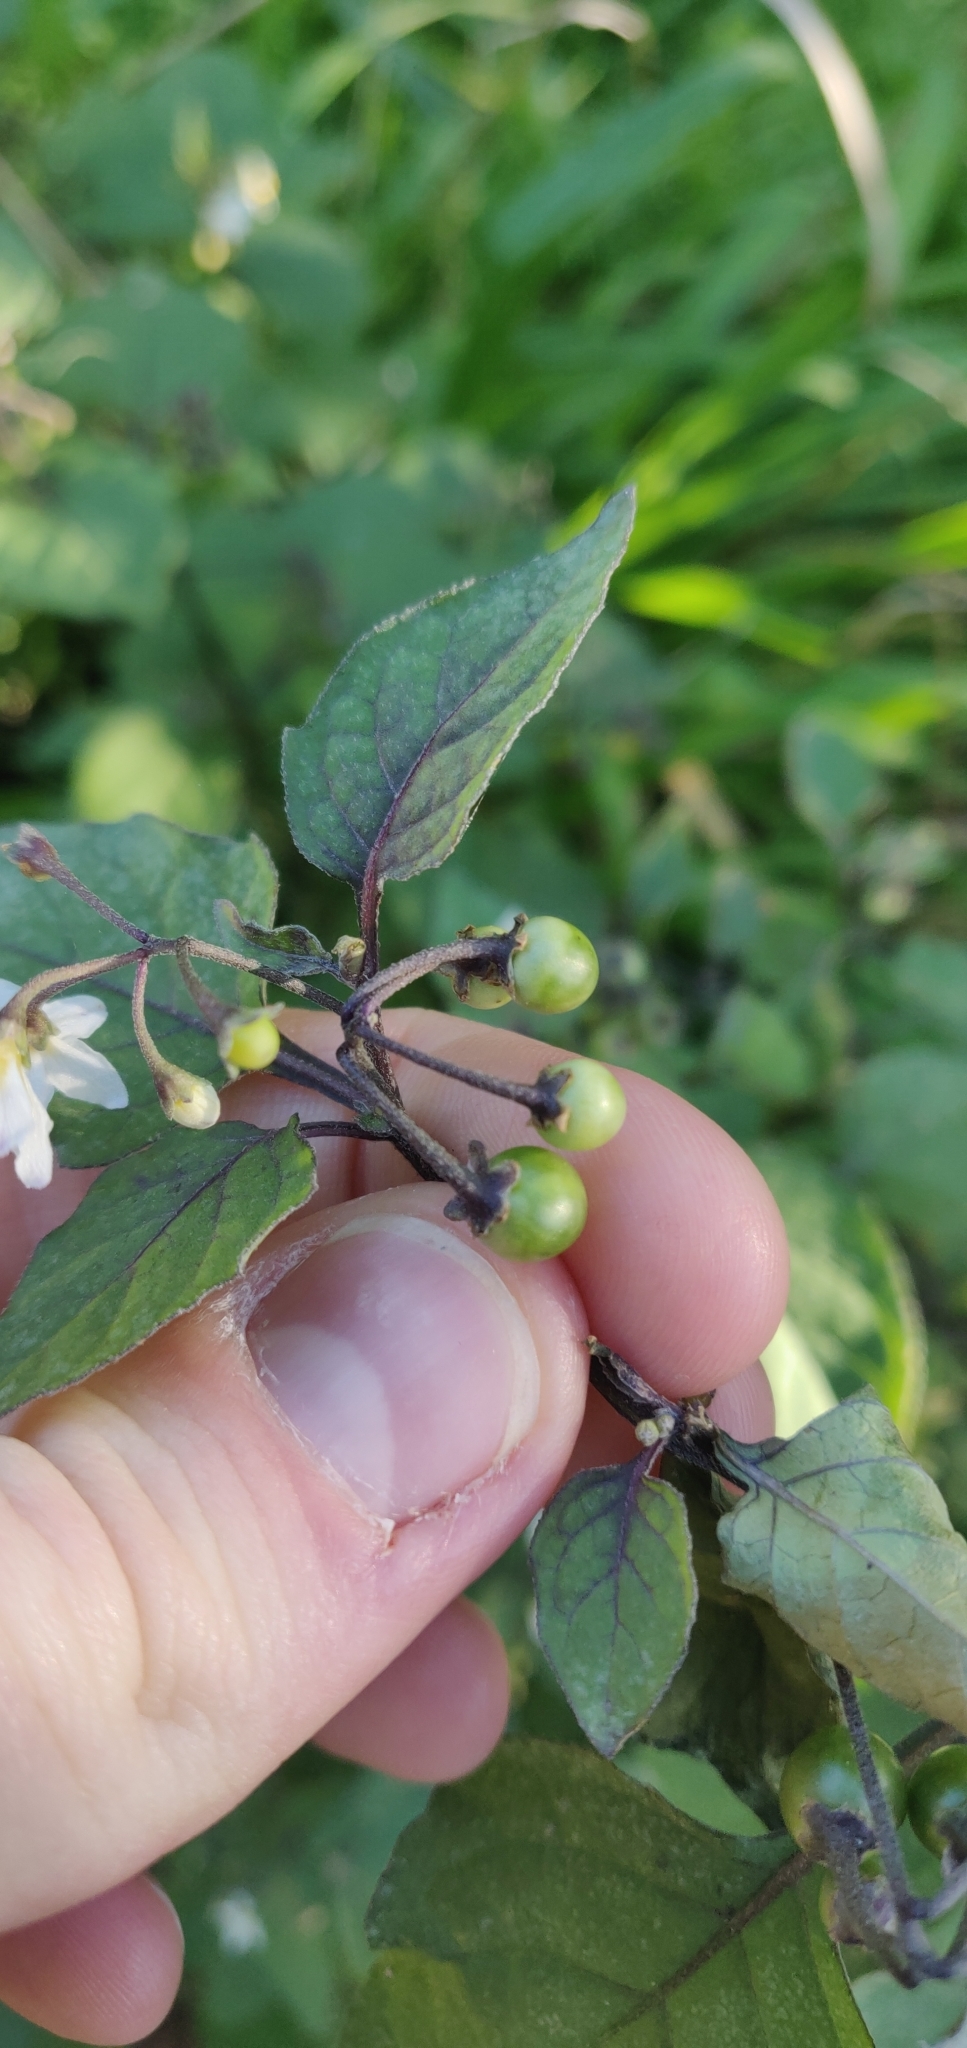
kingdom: Plantae
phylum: Tracheophyta
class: Magnoliopsida
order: Solanales
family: Solanaceae
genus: Solanum
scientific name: Solanum nigrum
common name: Black nightshade
